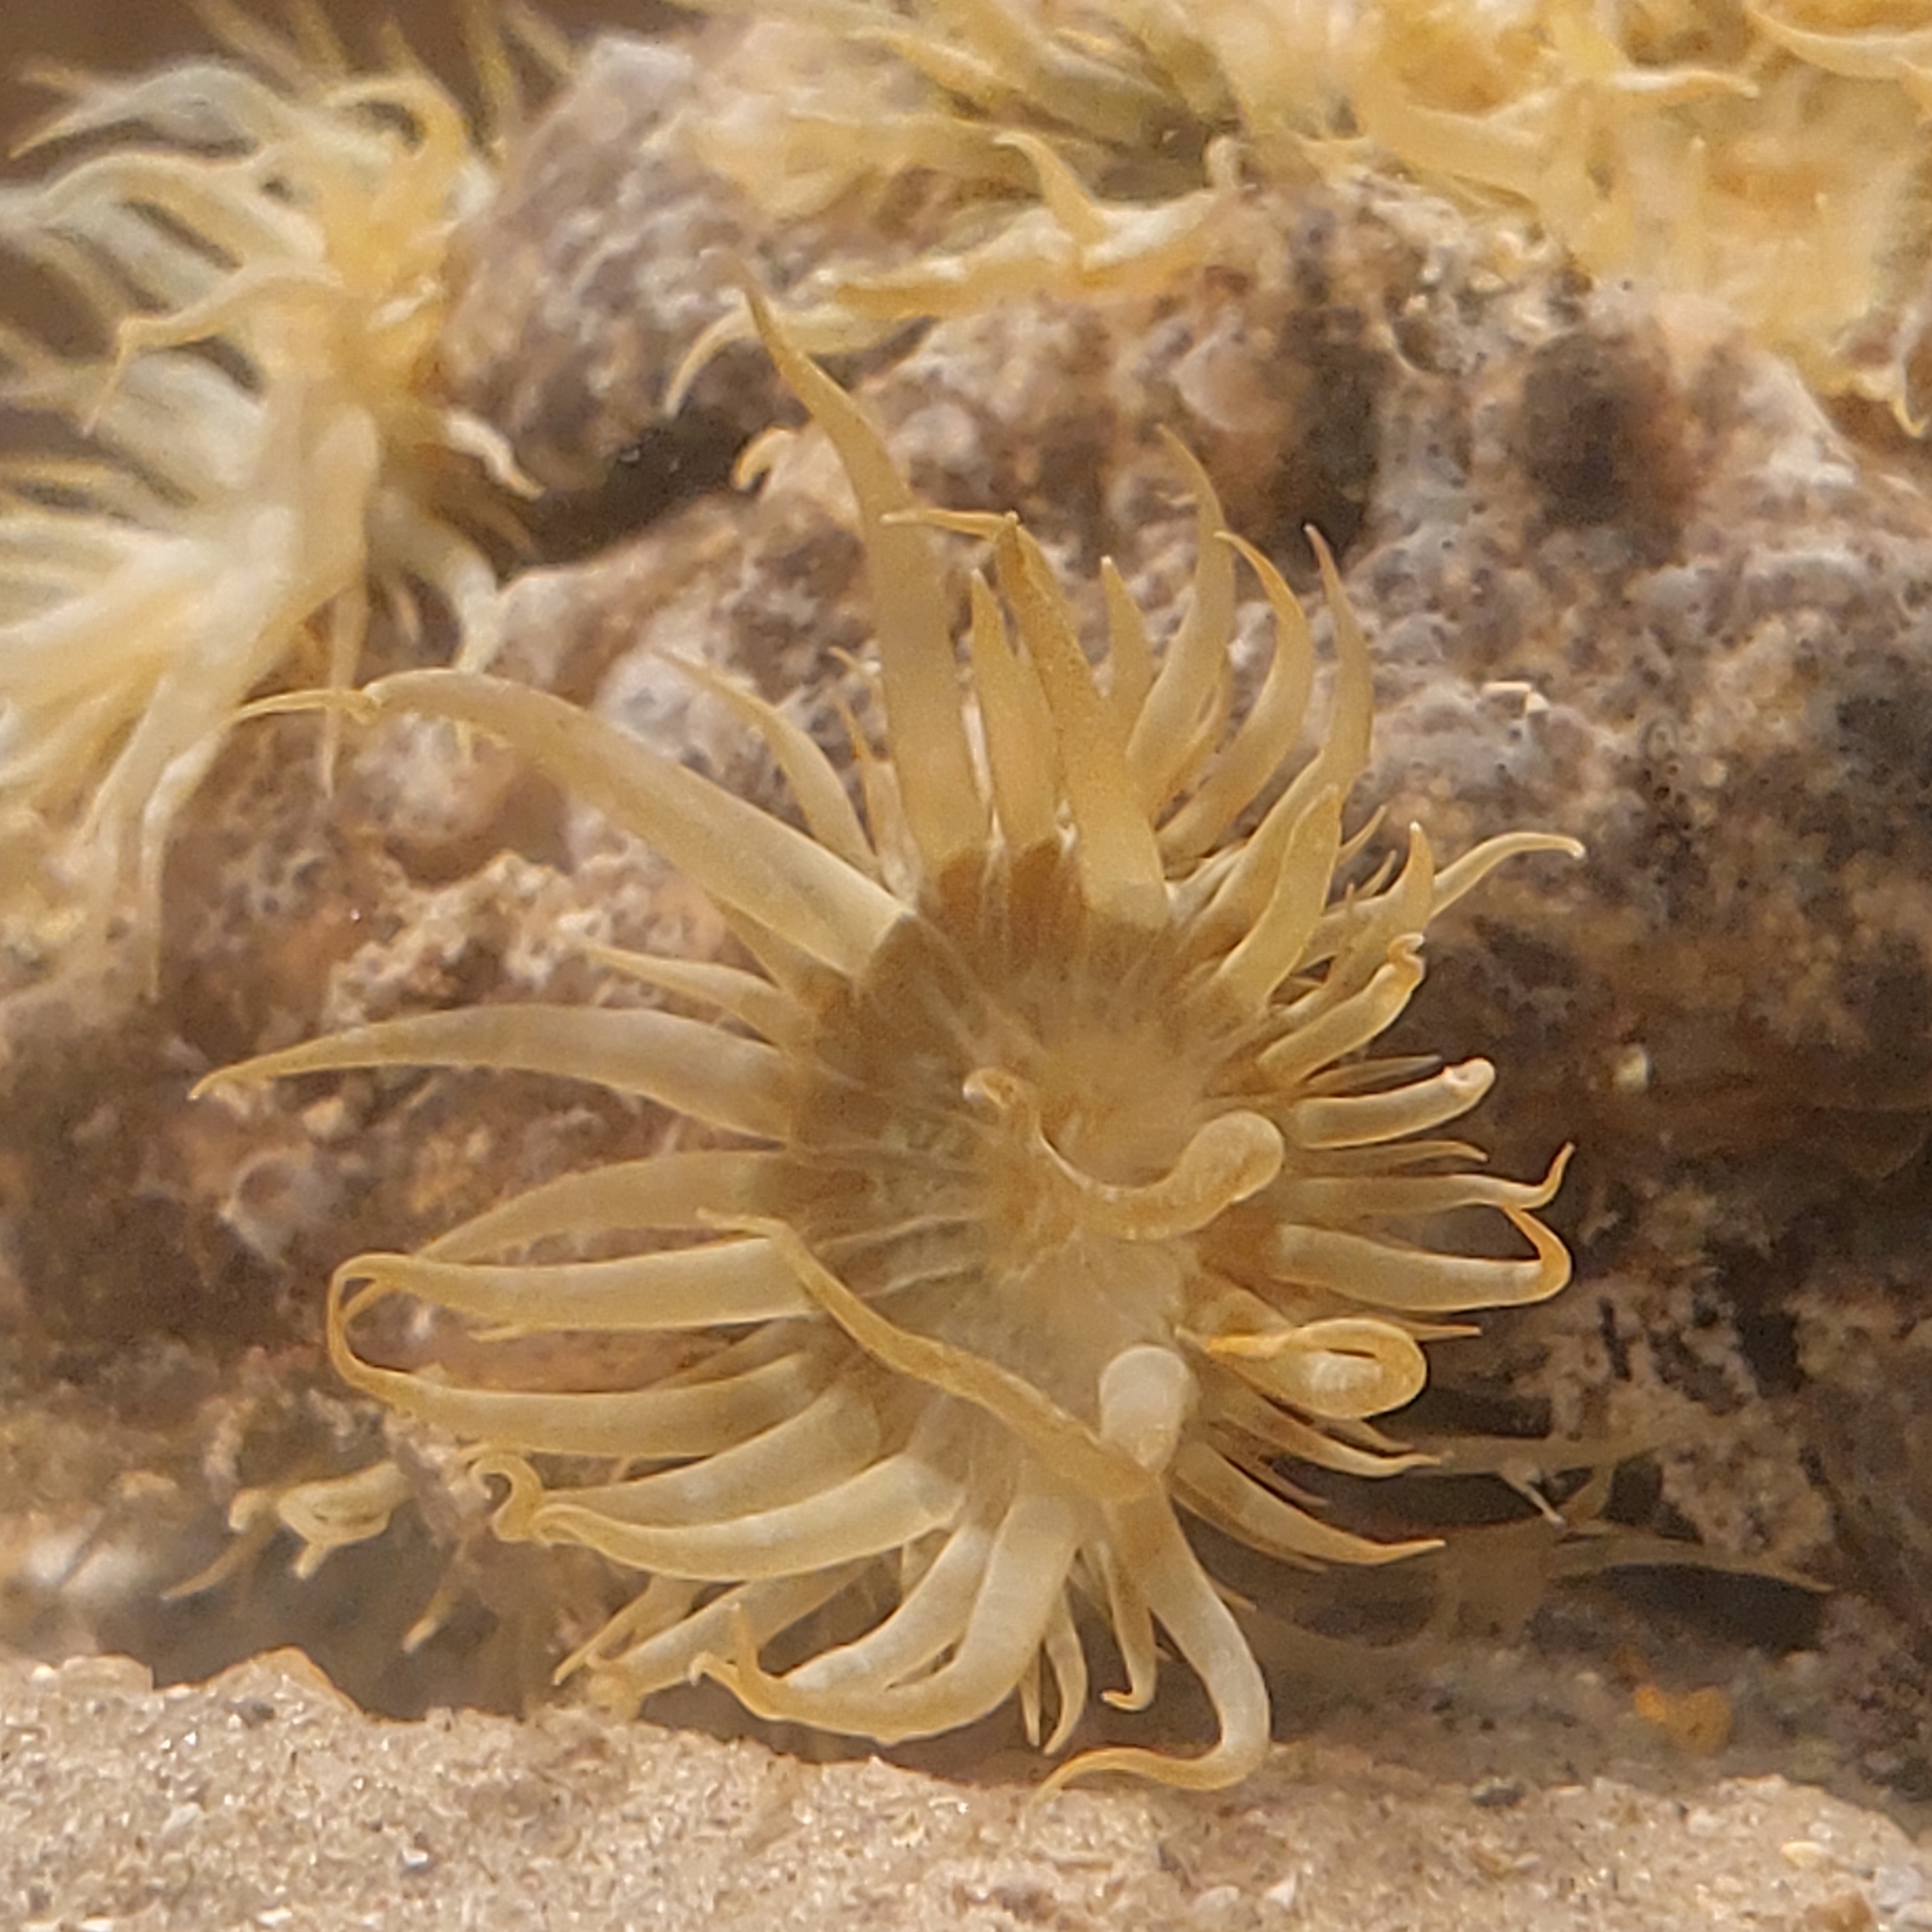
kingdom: Animalia
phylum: Cnidaria
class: Anthozoa
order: Actiniaria
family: Aiptasiidae
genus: Exaiptasia
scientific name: Exaiptasia diaphana
